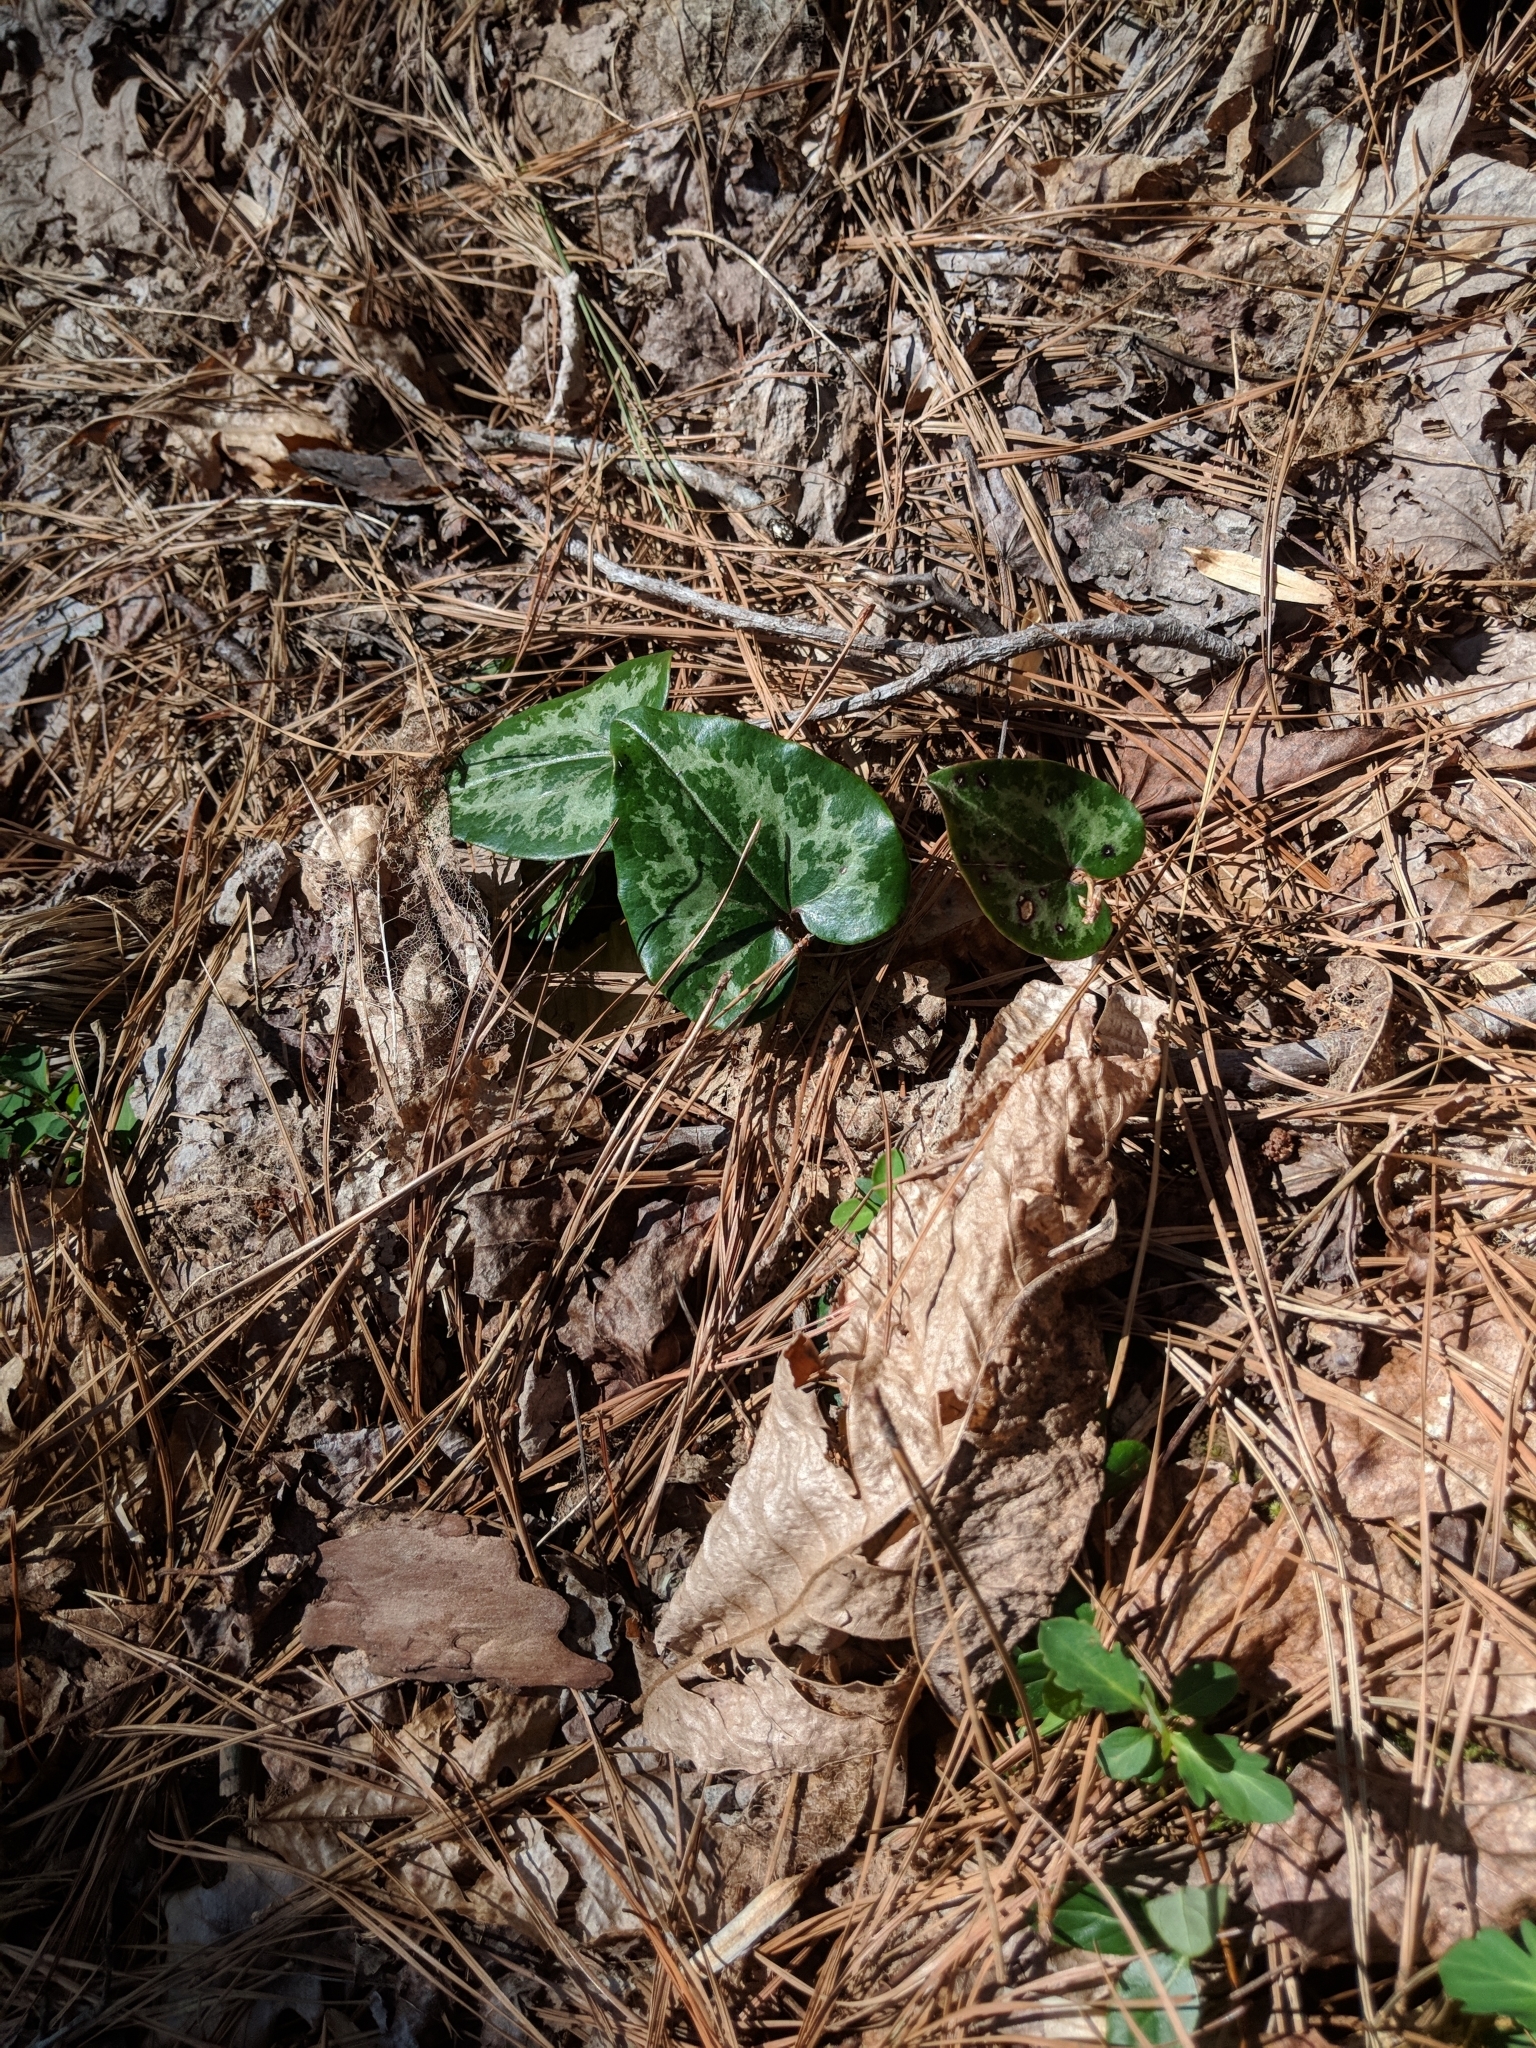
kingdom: Plantae
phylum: Tracheophyta
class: Magnoliopsida
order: Piperales
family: Aristolochiaceae
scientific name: Aristolochiaceae
